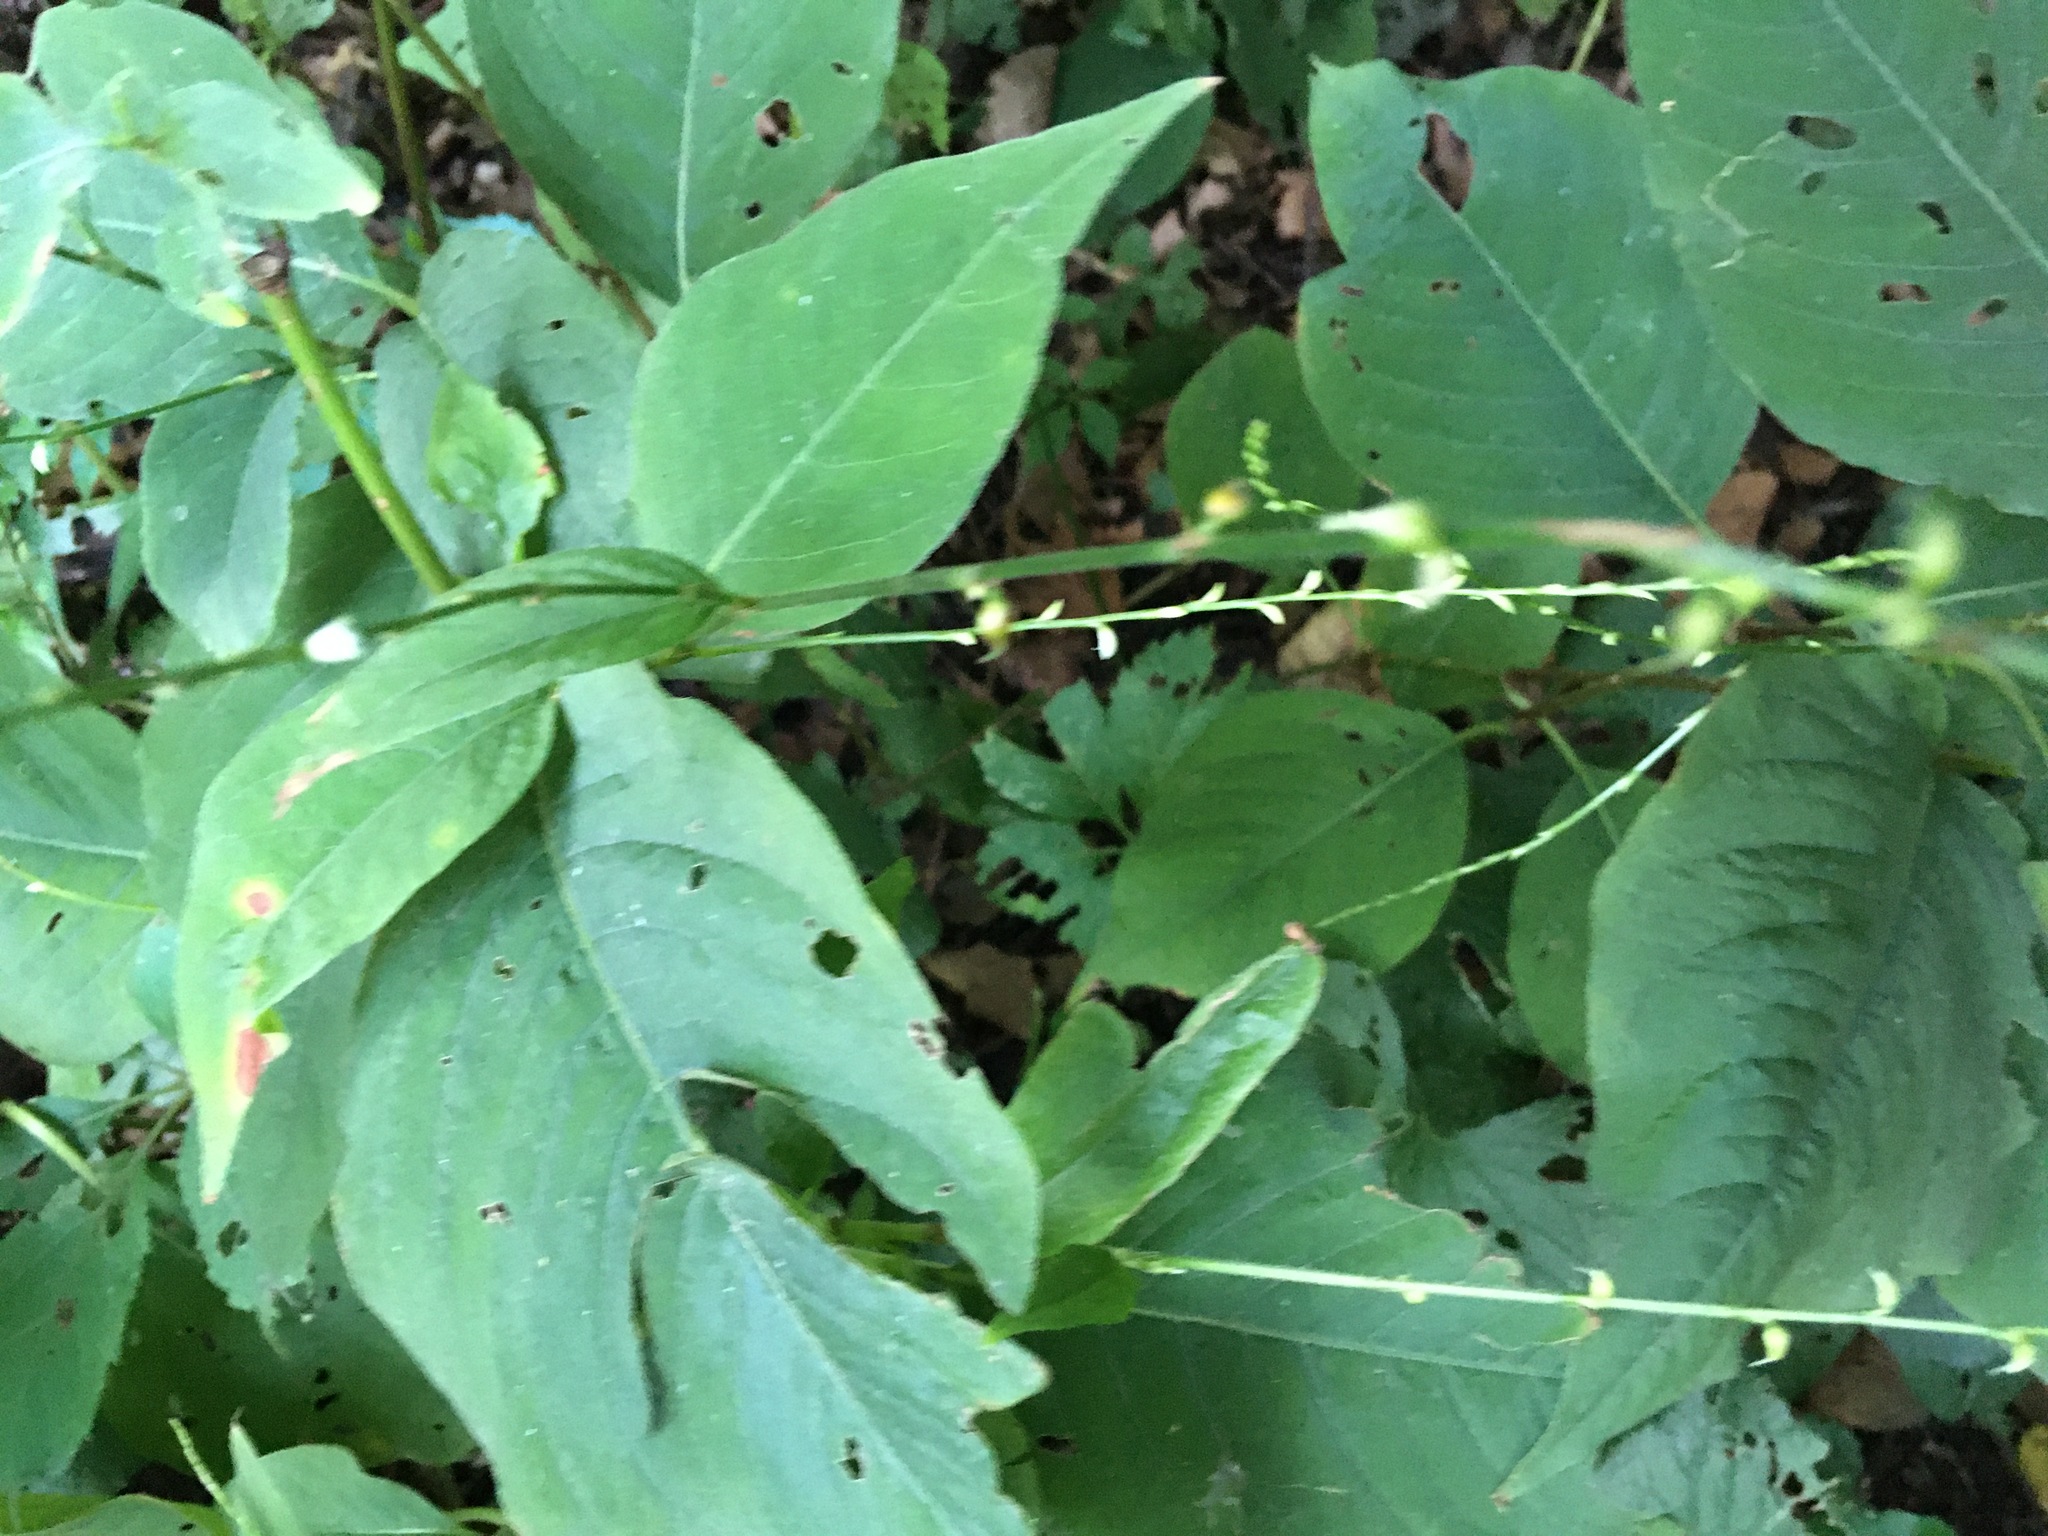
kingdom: Plantae
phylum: Tracheophyta
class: Magnoliopsida
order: Caryophyllales
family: Polygonaceae
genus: Persicaria
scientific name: Persicaria virginiana
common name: Jumpseed
